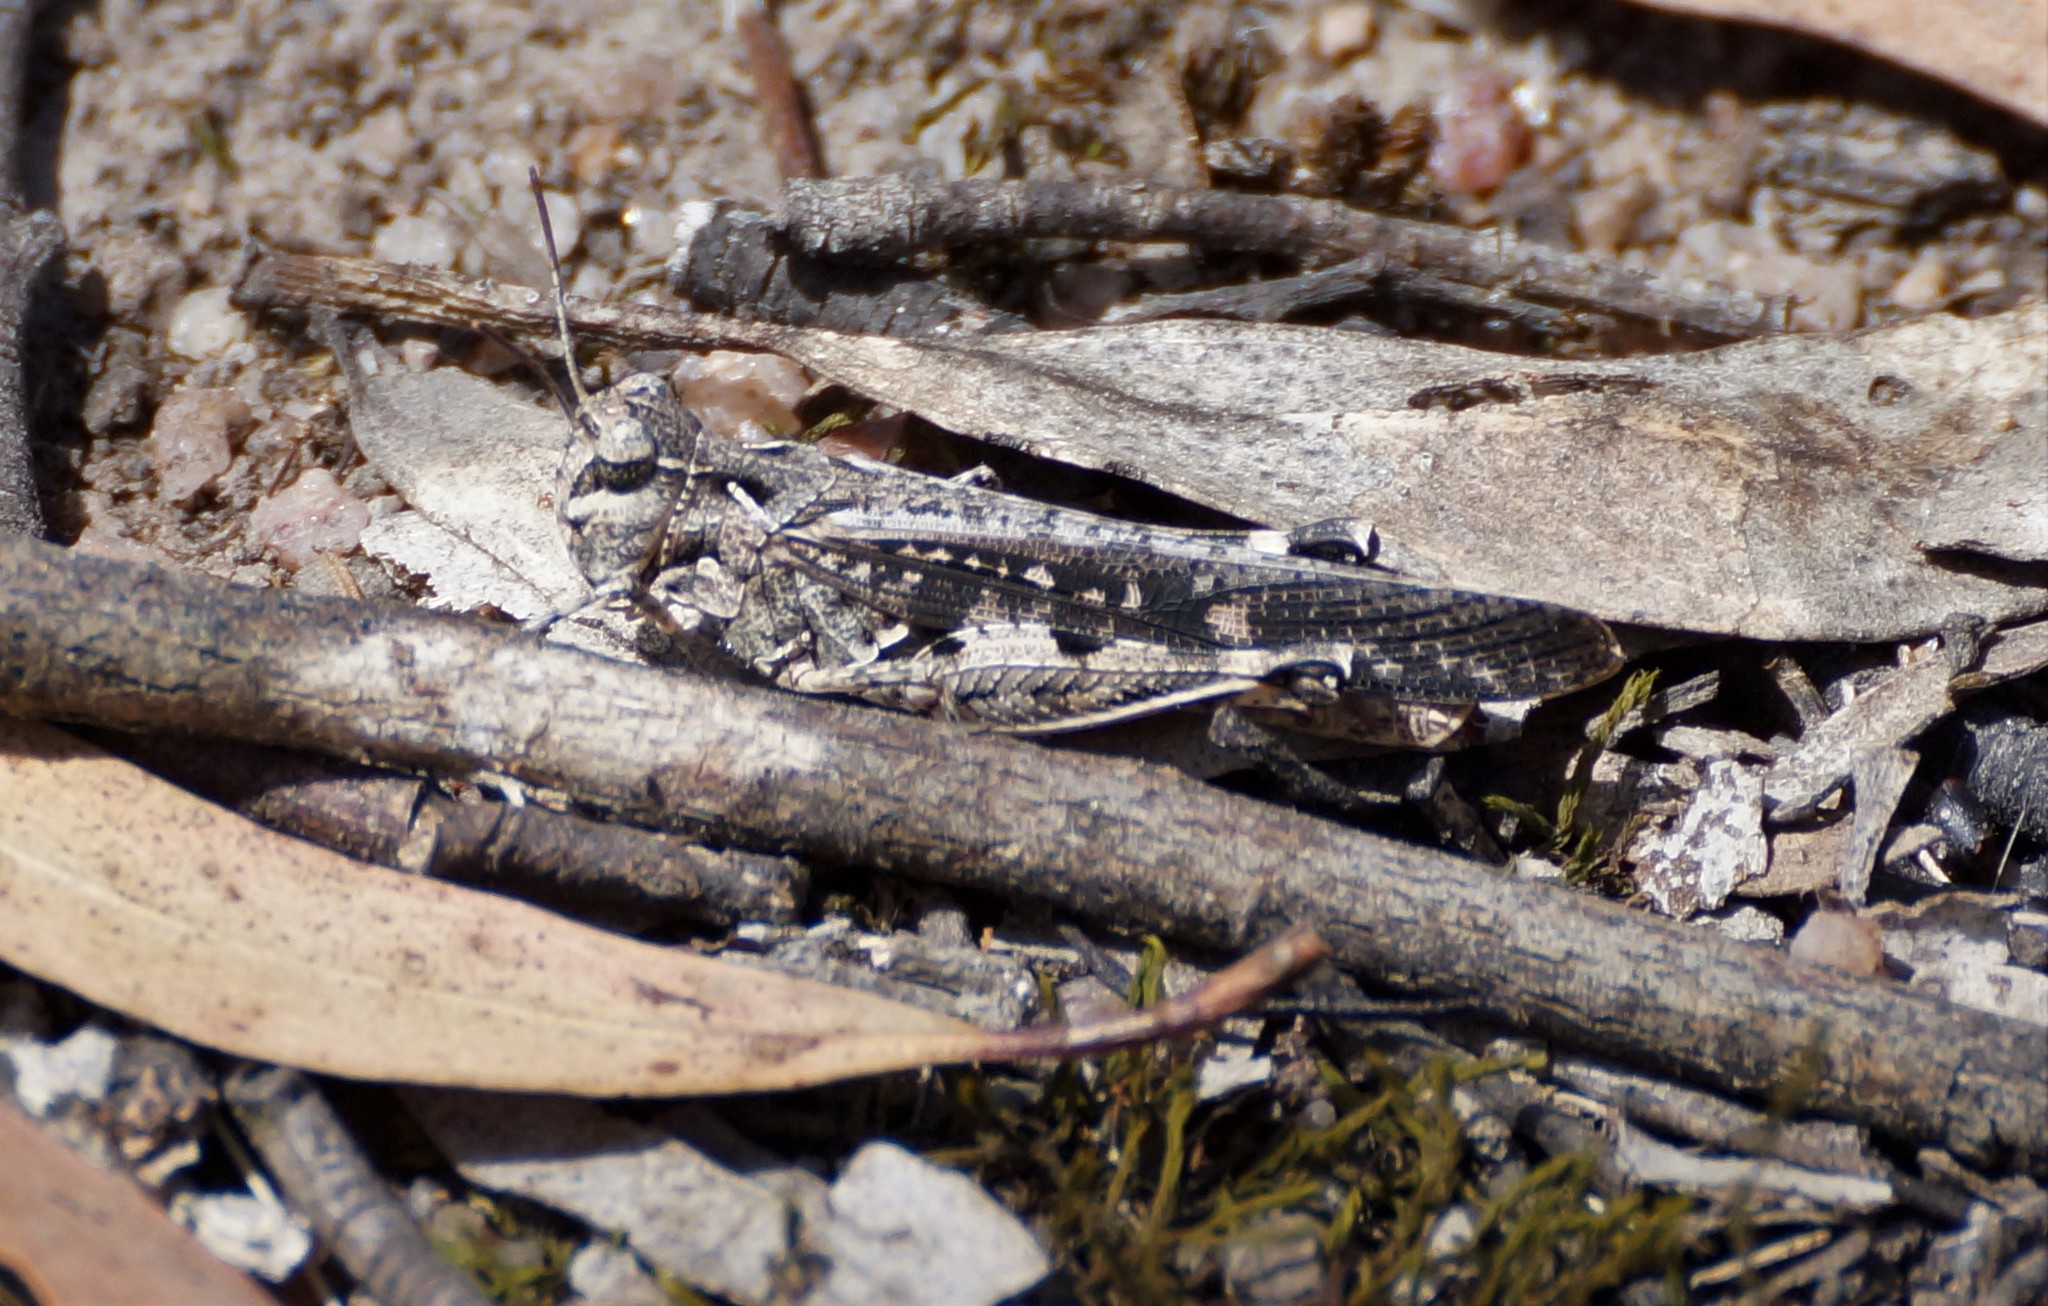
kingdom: Animalia
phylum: Arthropoda
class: Insecta
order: Orthoptera
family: Acrididae
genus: Austroicetes
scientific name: Austroicetes vulgaris
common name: Southeastern austroicetes
